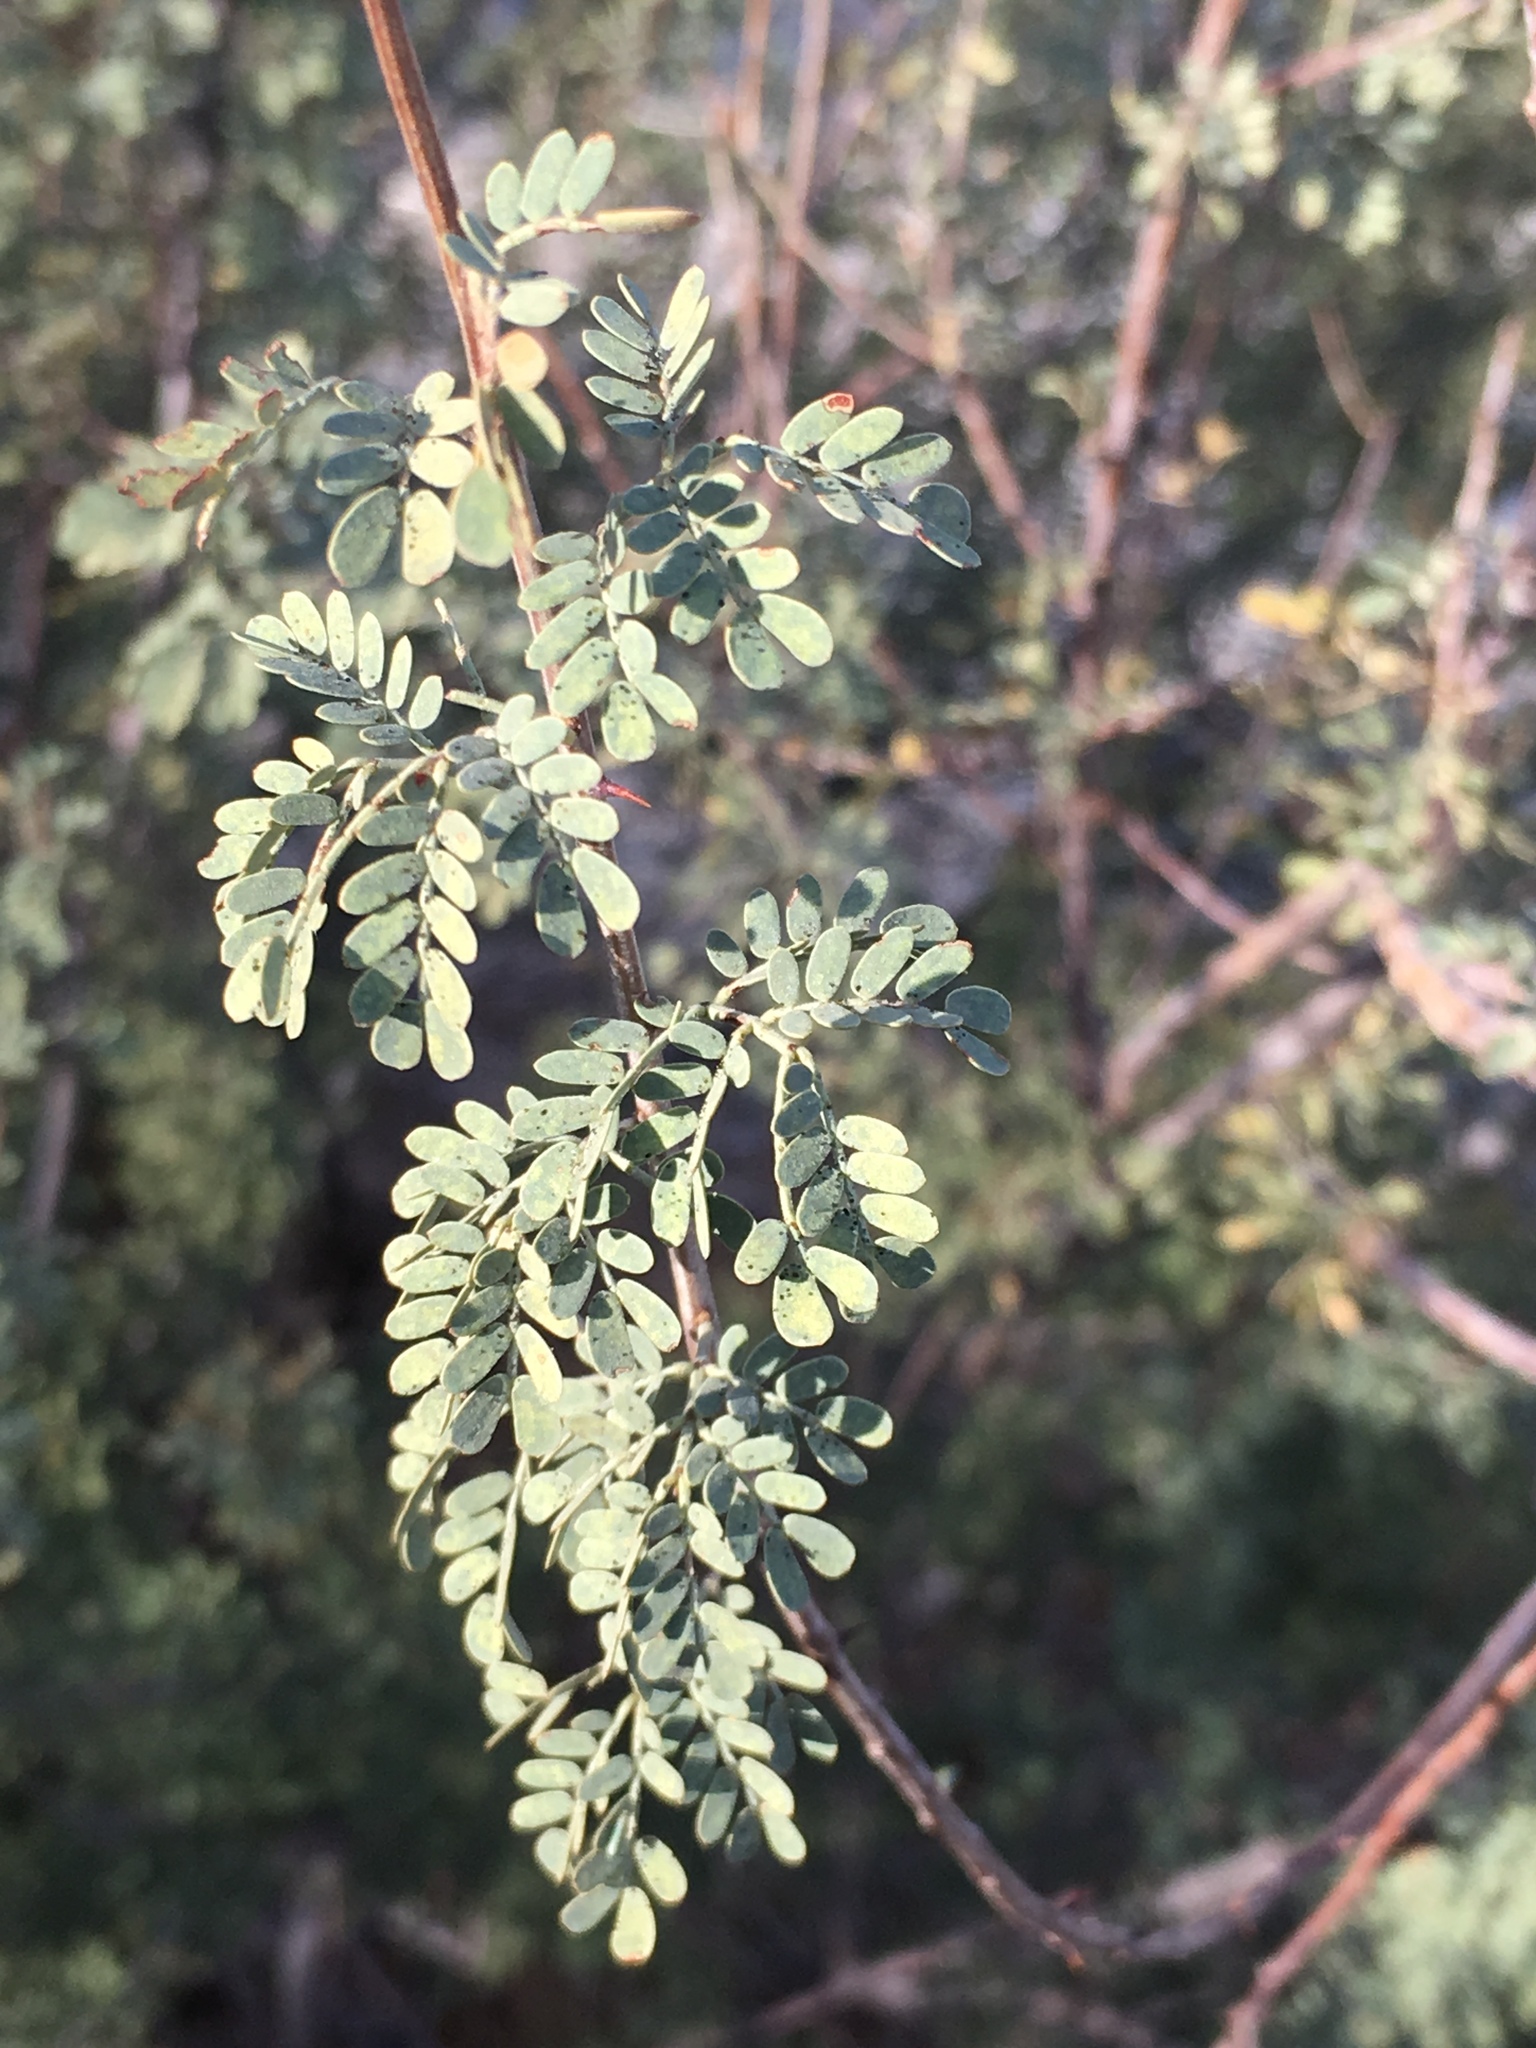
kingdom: Plantae
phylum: Tracheophyta
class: Magnoliopsida
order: Fabales
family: Fabaceae
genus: Senegalia
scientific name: Senegalia greggii
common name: Texas-mimosa
